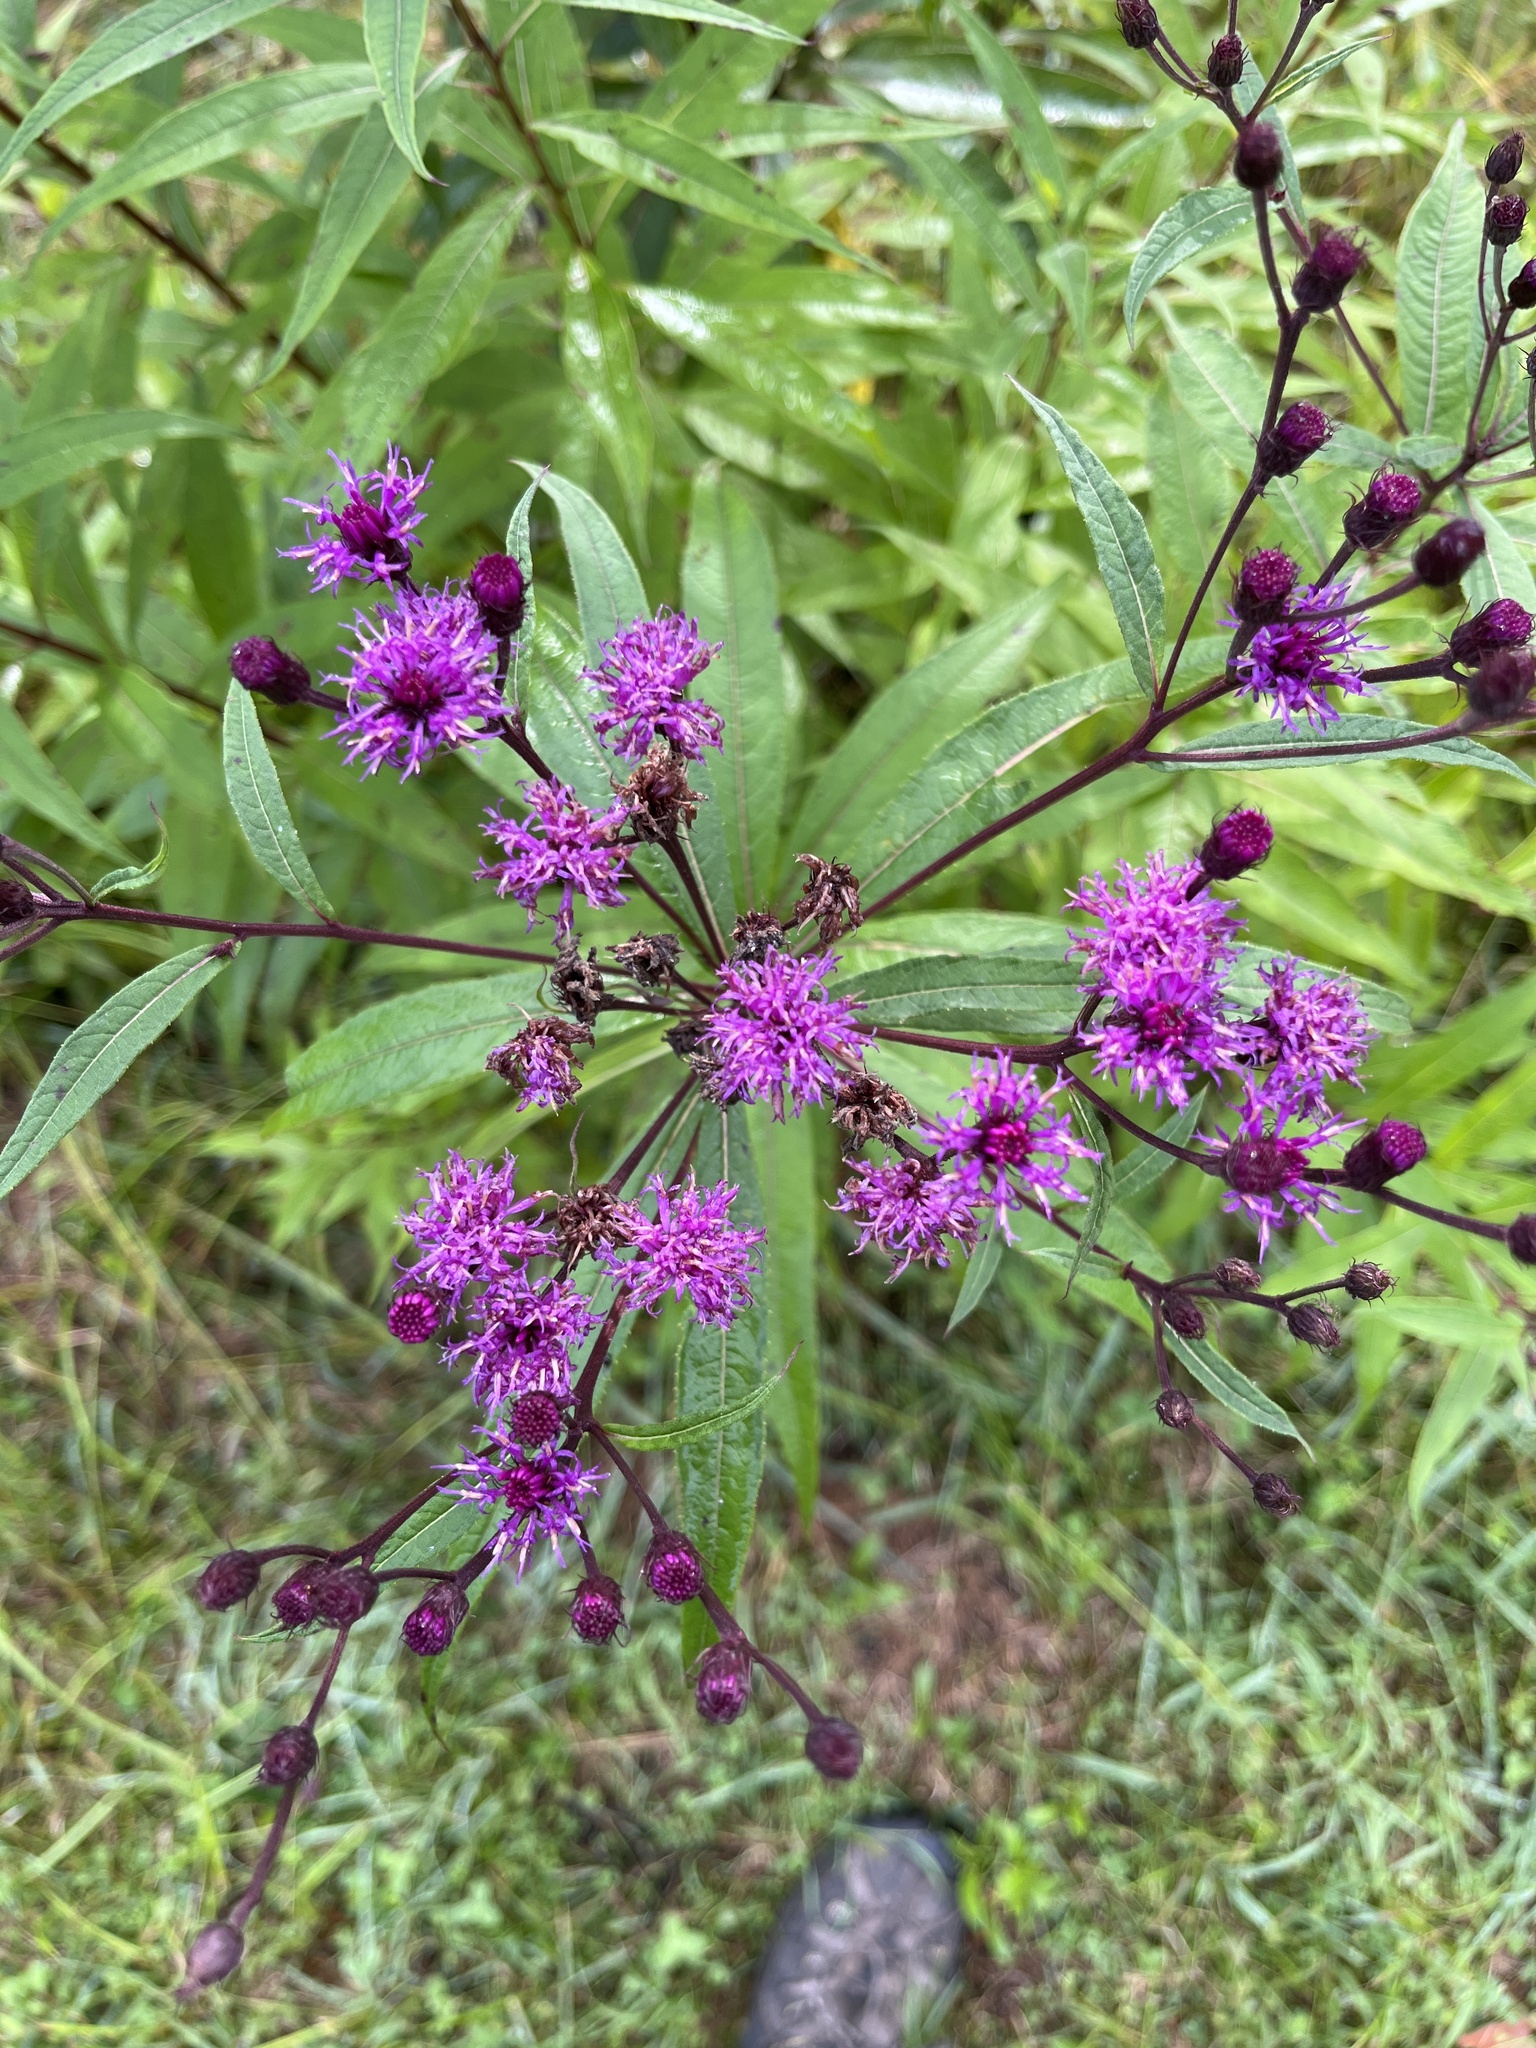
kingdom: Plantae
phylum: Tracheophyta
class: Magnoliopsida
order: Asterales
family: Asteraceae
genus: Vernonia
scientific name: Vernonia noveboracensis
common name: New york ironweed
